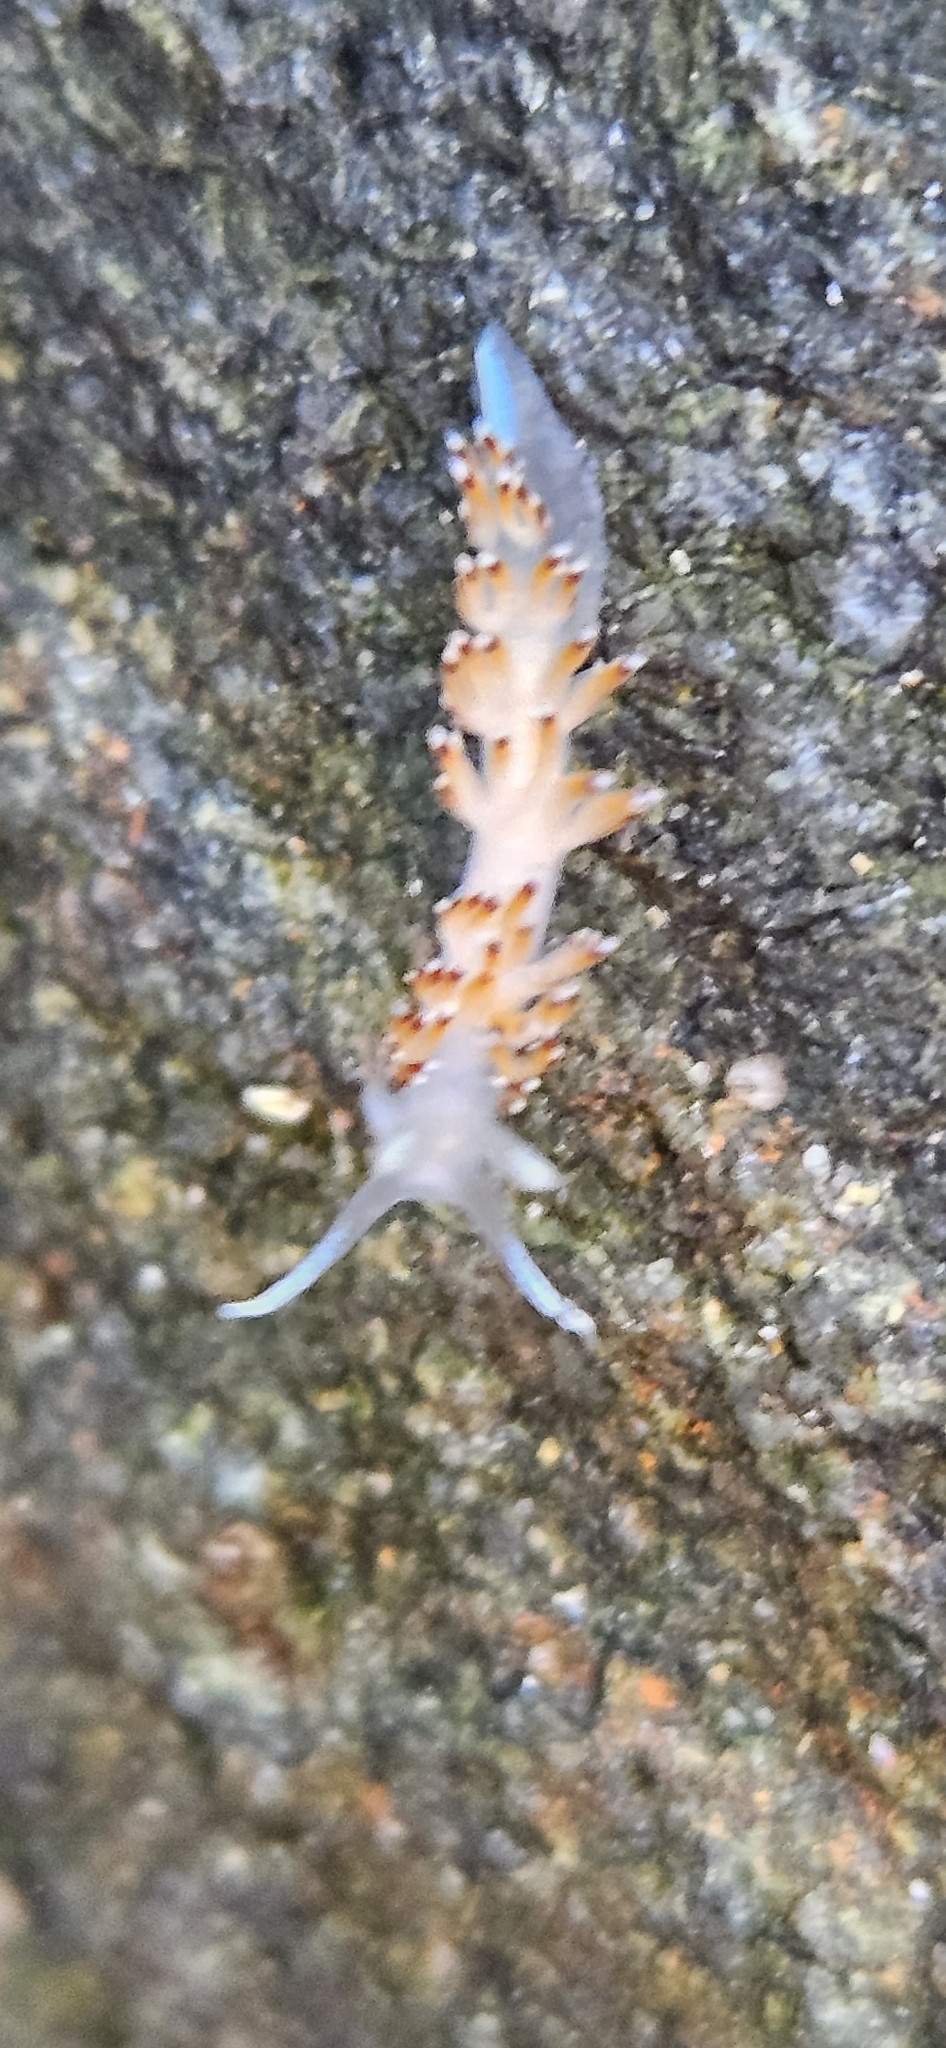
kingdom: Animalia
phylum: Mollusca
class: Gastropoda
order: Nudibranchia
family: Apataidae
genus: Apata
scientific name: Apata pricei
